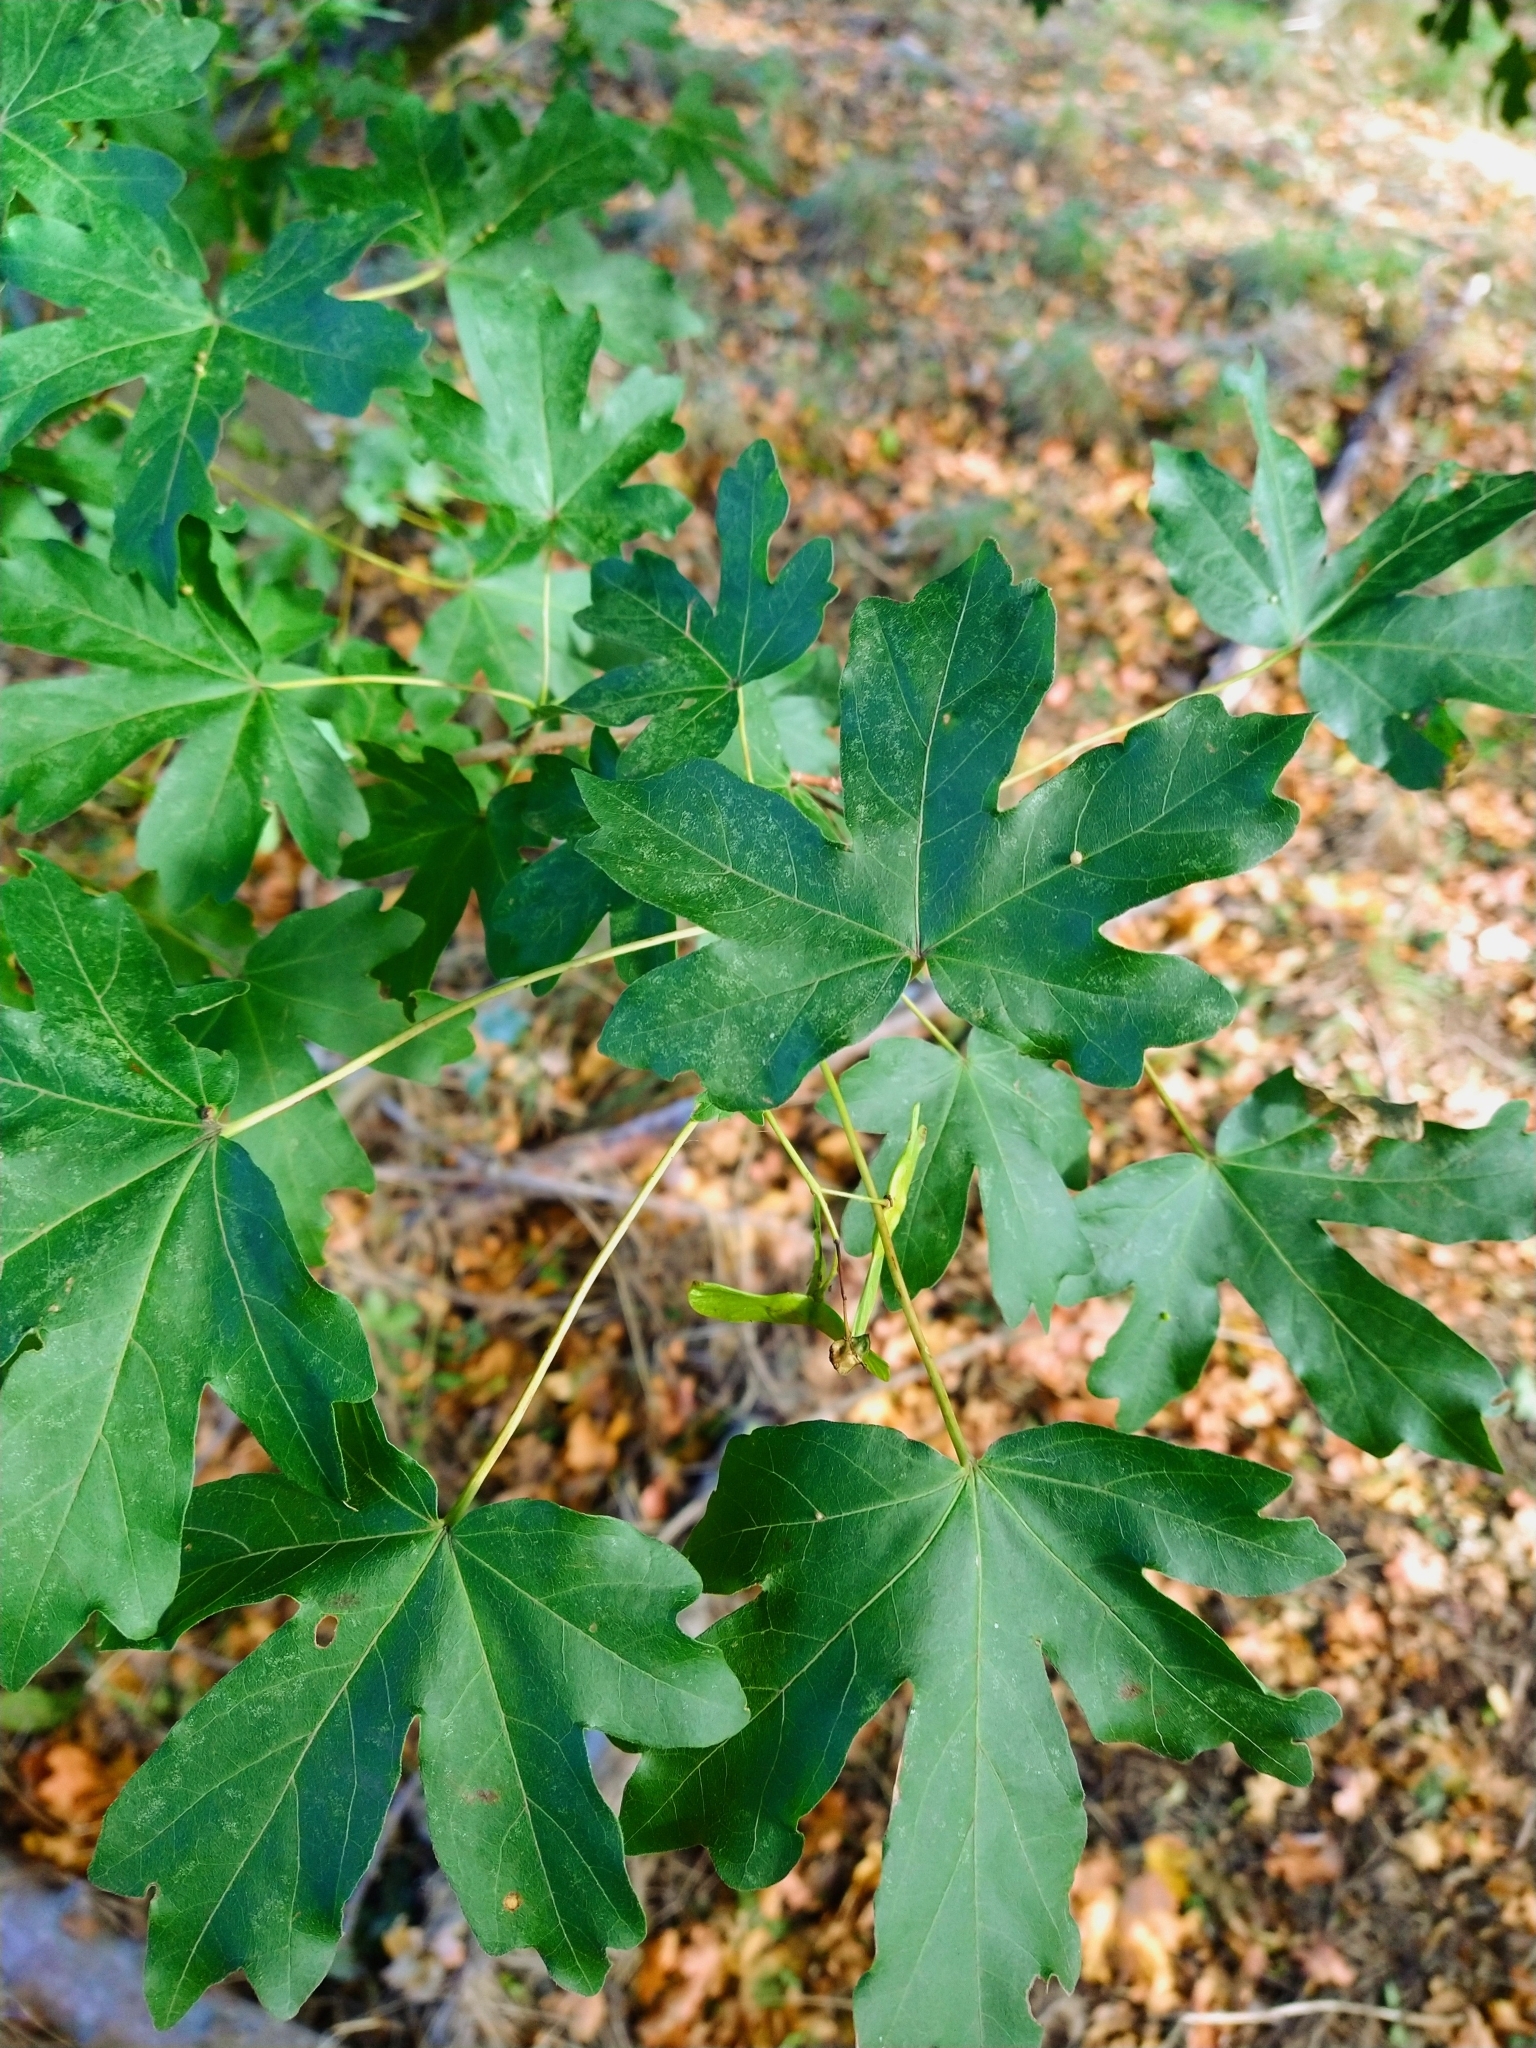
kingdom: Plantae
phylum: Tracheophyta
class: Magnoliopsida
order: Sapindales
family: Sapindaceae
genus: Acer
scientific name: Acer campestre
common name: Field maple
